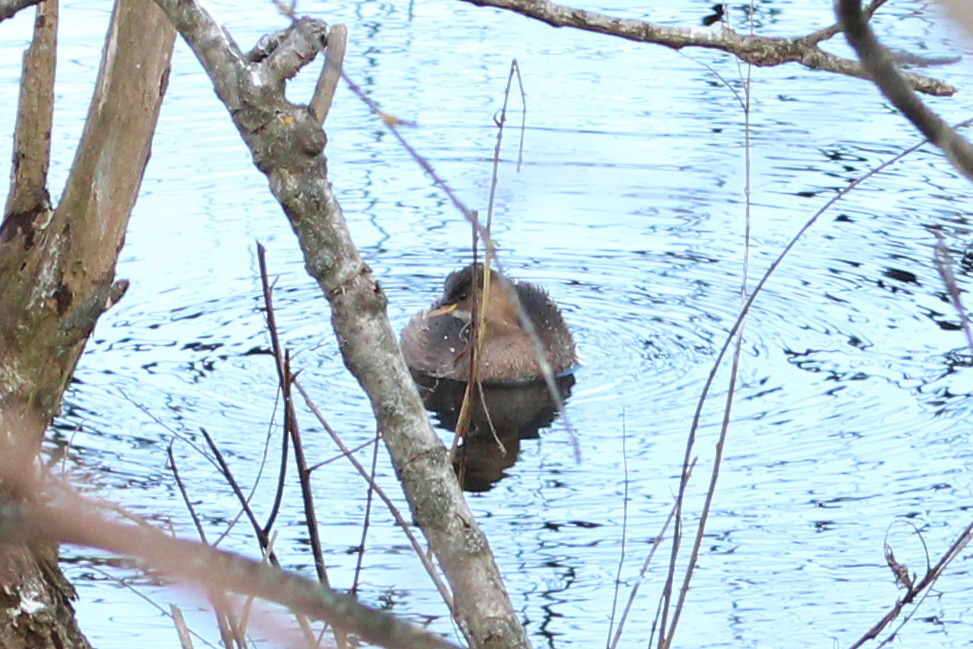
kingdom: Animalia
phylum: Chordata
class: Aves
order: Podicipediformes
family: Podicipedidae
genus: Tachybaptus
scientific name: Tachybaptus ruficollis
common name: Little grebe
